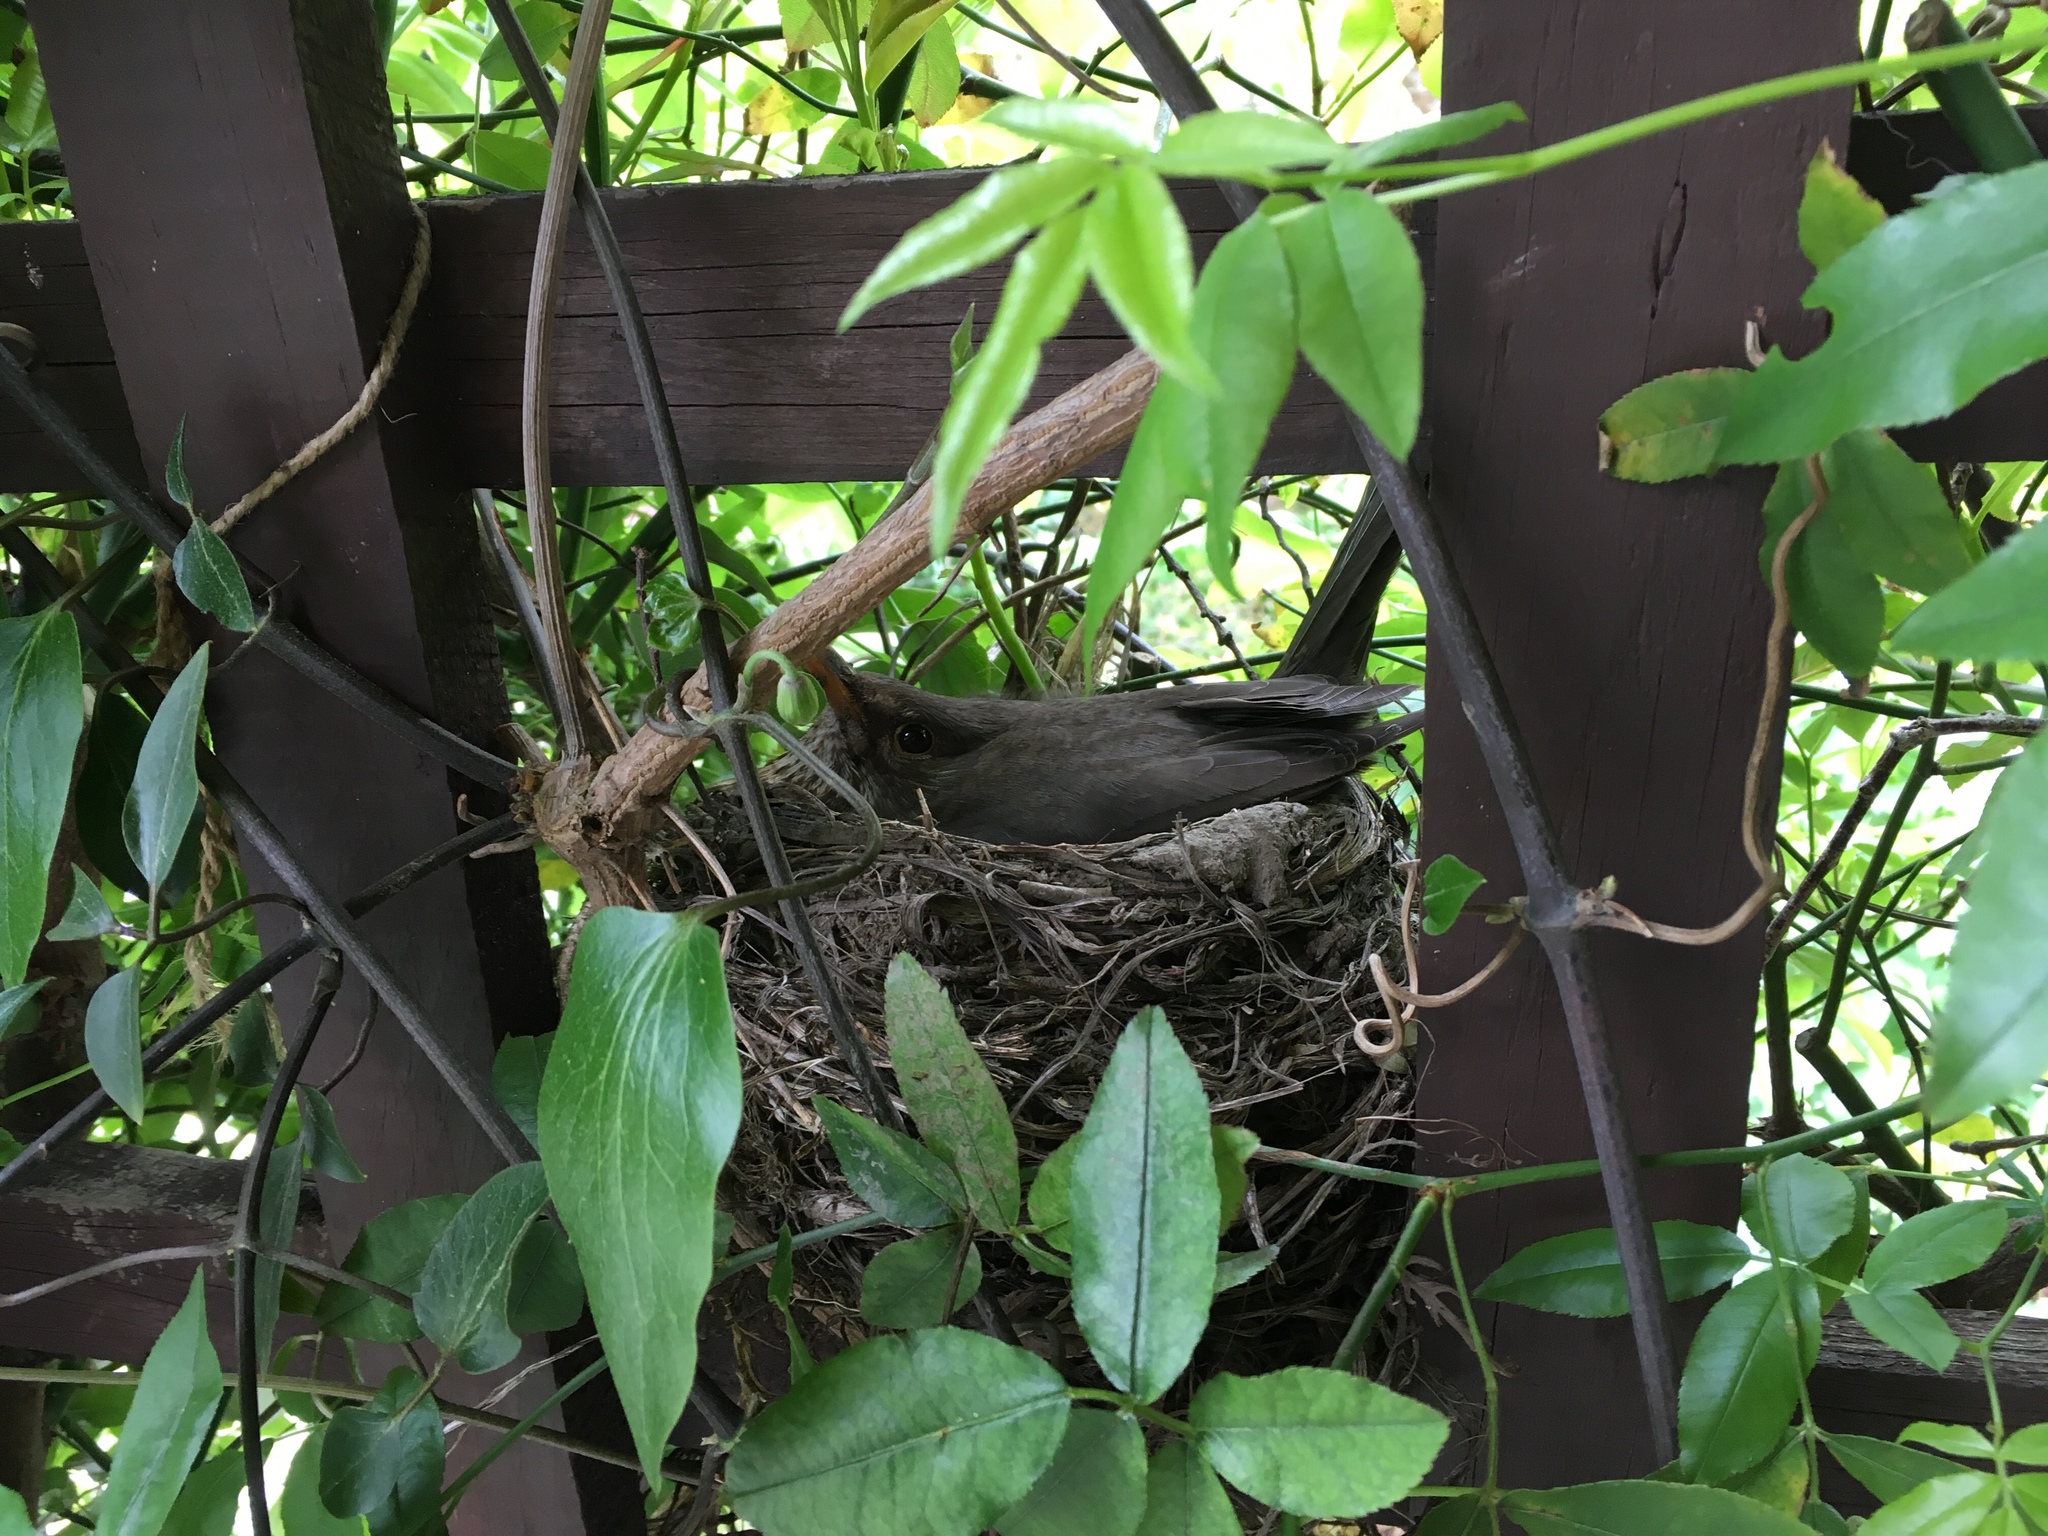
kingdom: Animalia
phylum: Chordata
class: Aves
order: Passeriformes
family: Turdidae
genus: Turdus
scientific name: Turdus merula
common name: Common blackbird
